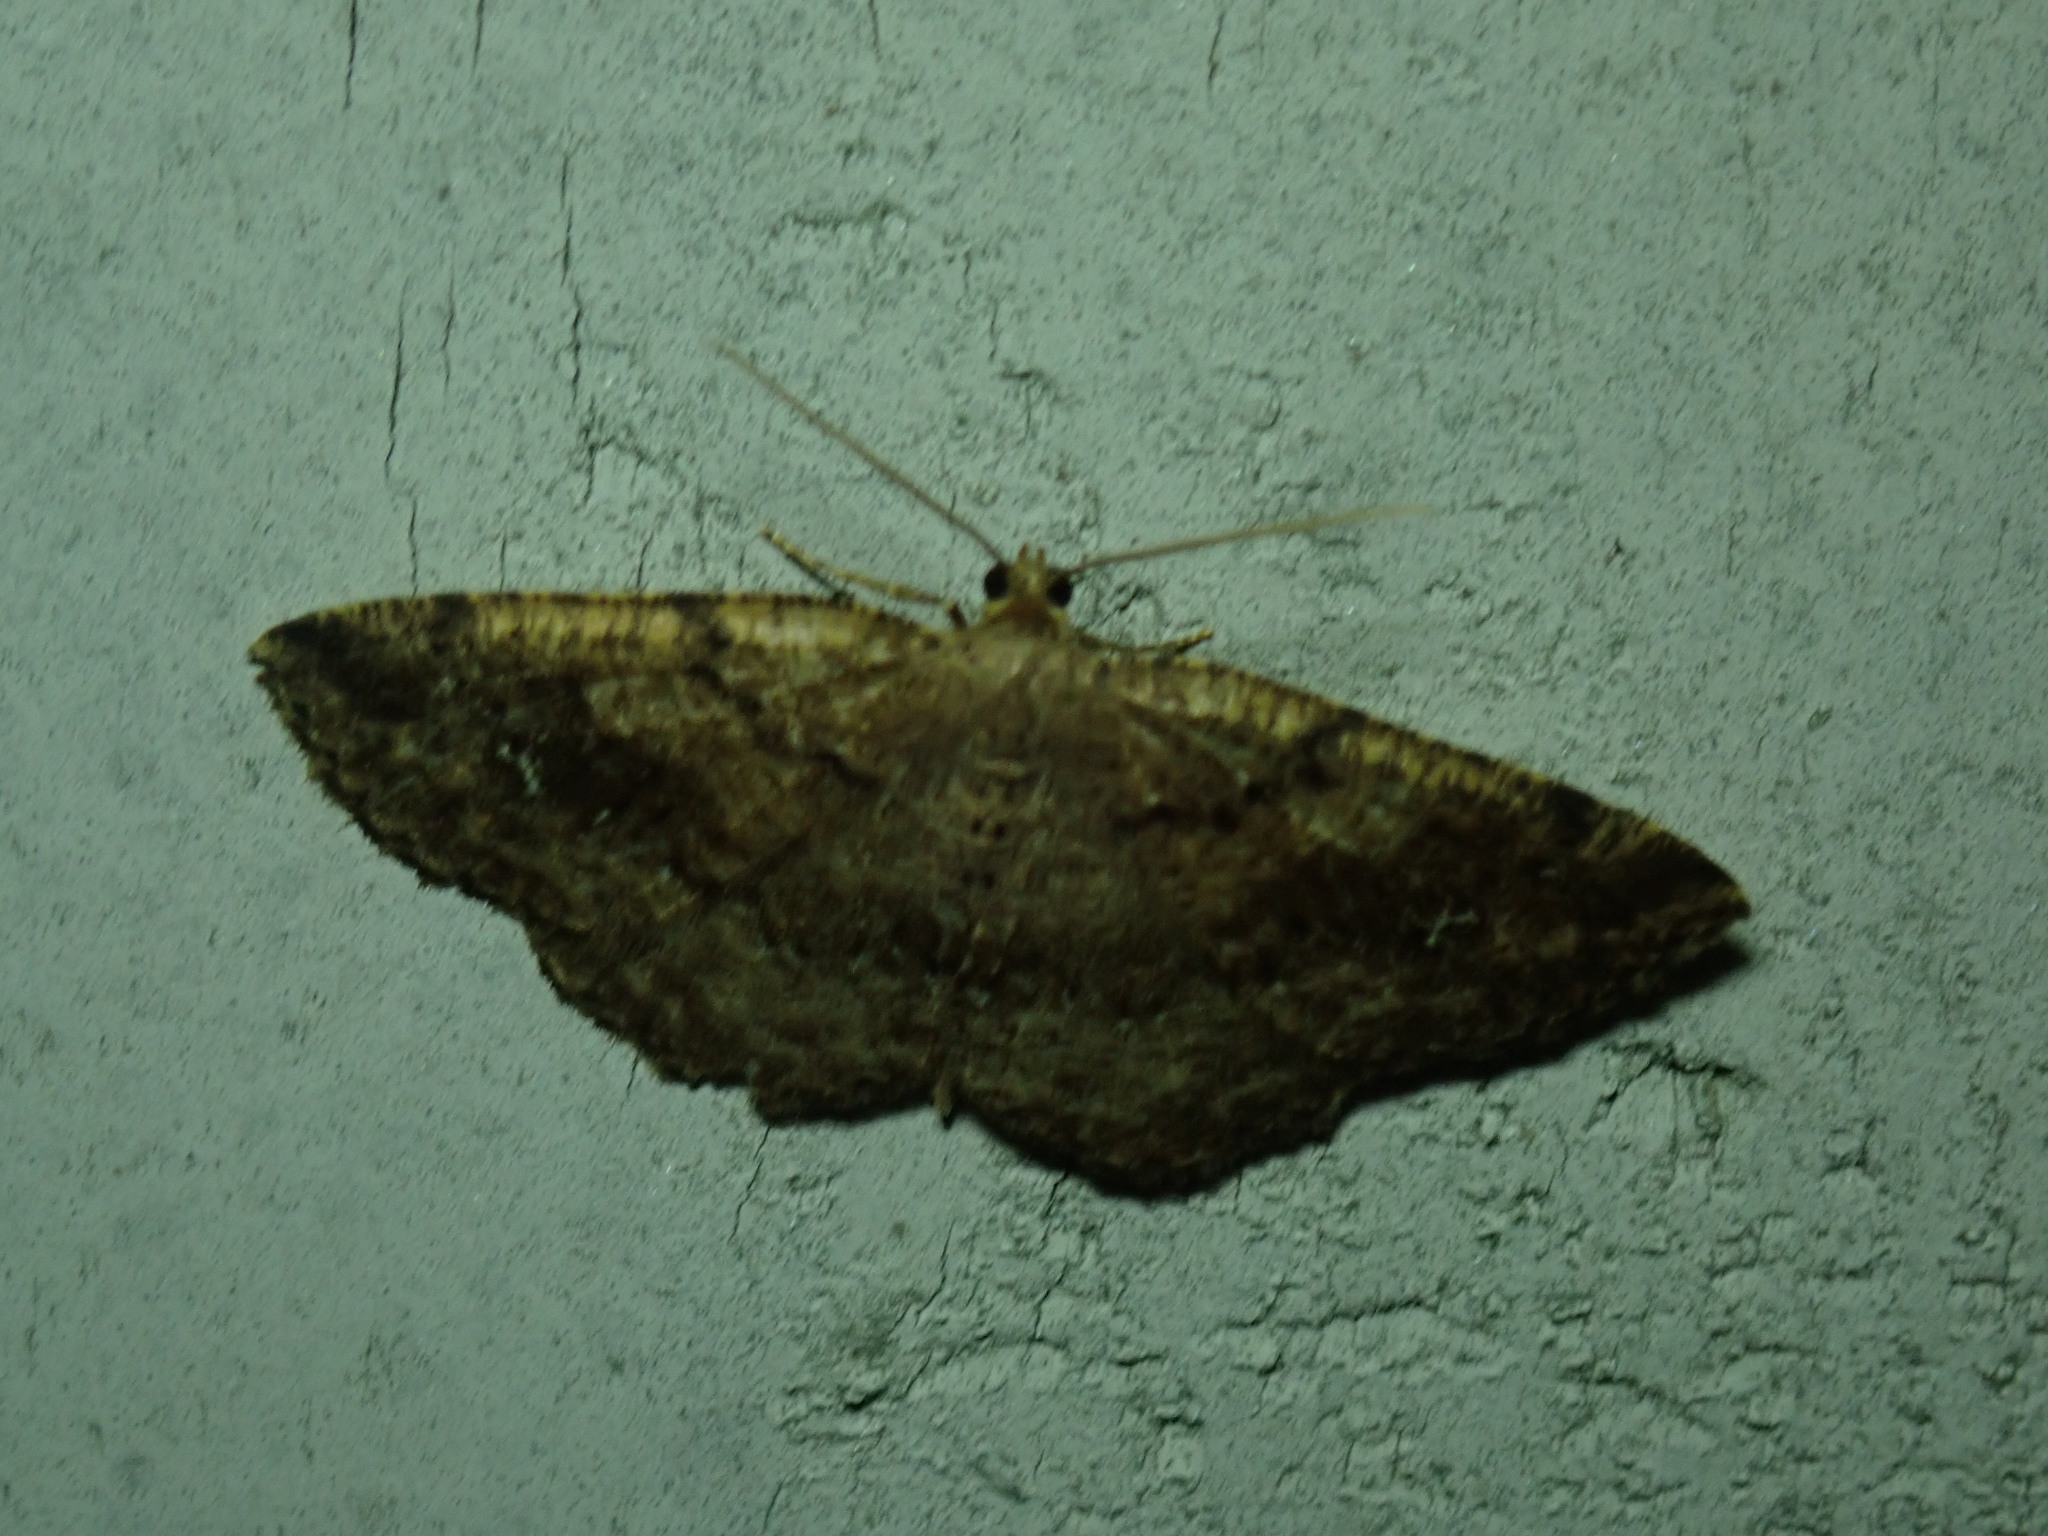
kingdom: Animalia
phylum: Arthropoda
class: Insecta
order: Lepidoptera
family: Geometridae
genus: Homochlodes
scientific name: Homochlodes fritillaria
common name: Pale homochlodes
